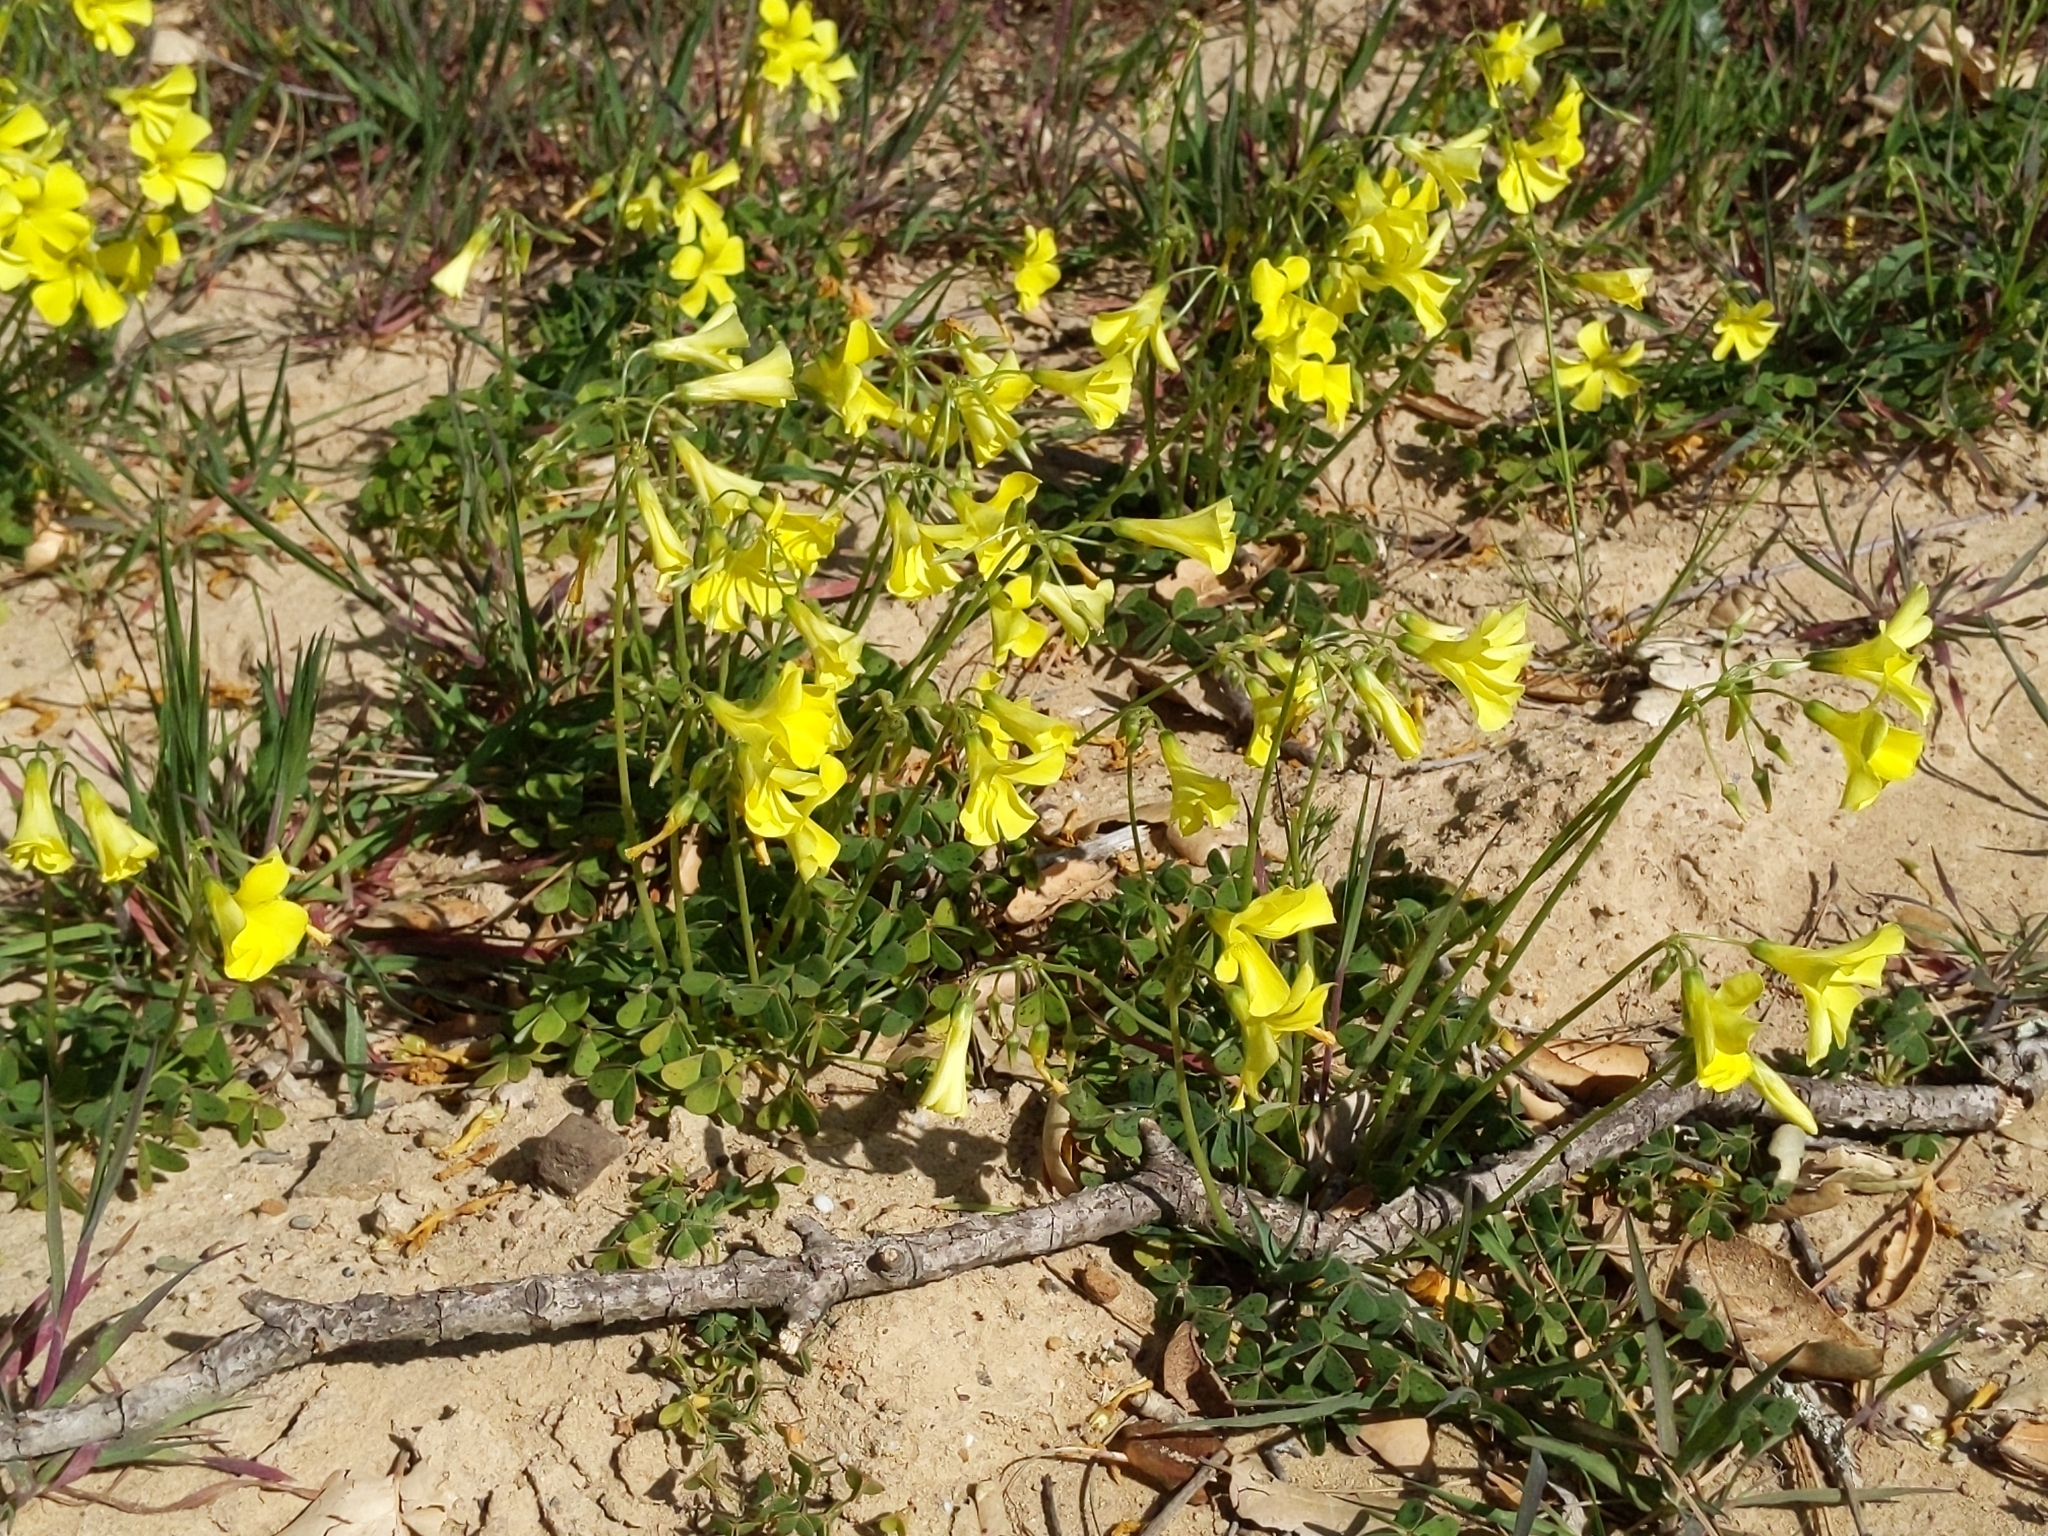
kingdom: Plantae
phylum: Tracheophyta
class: Magnoliopsida
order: Oxalidales
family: Oxalidaceae
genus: Oxalis
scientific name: Oxalis pes-caprae
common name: Bermuda-buttercup
